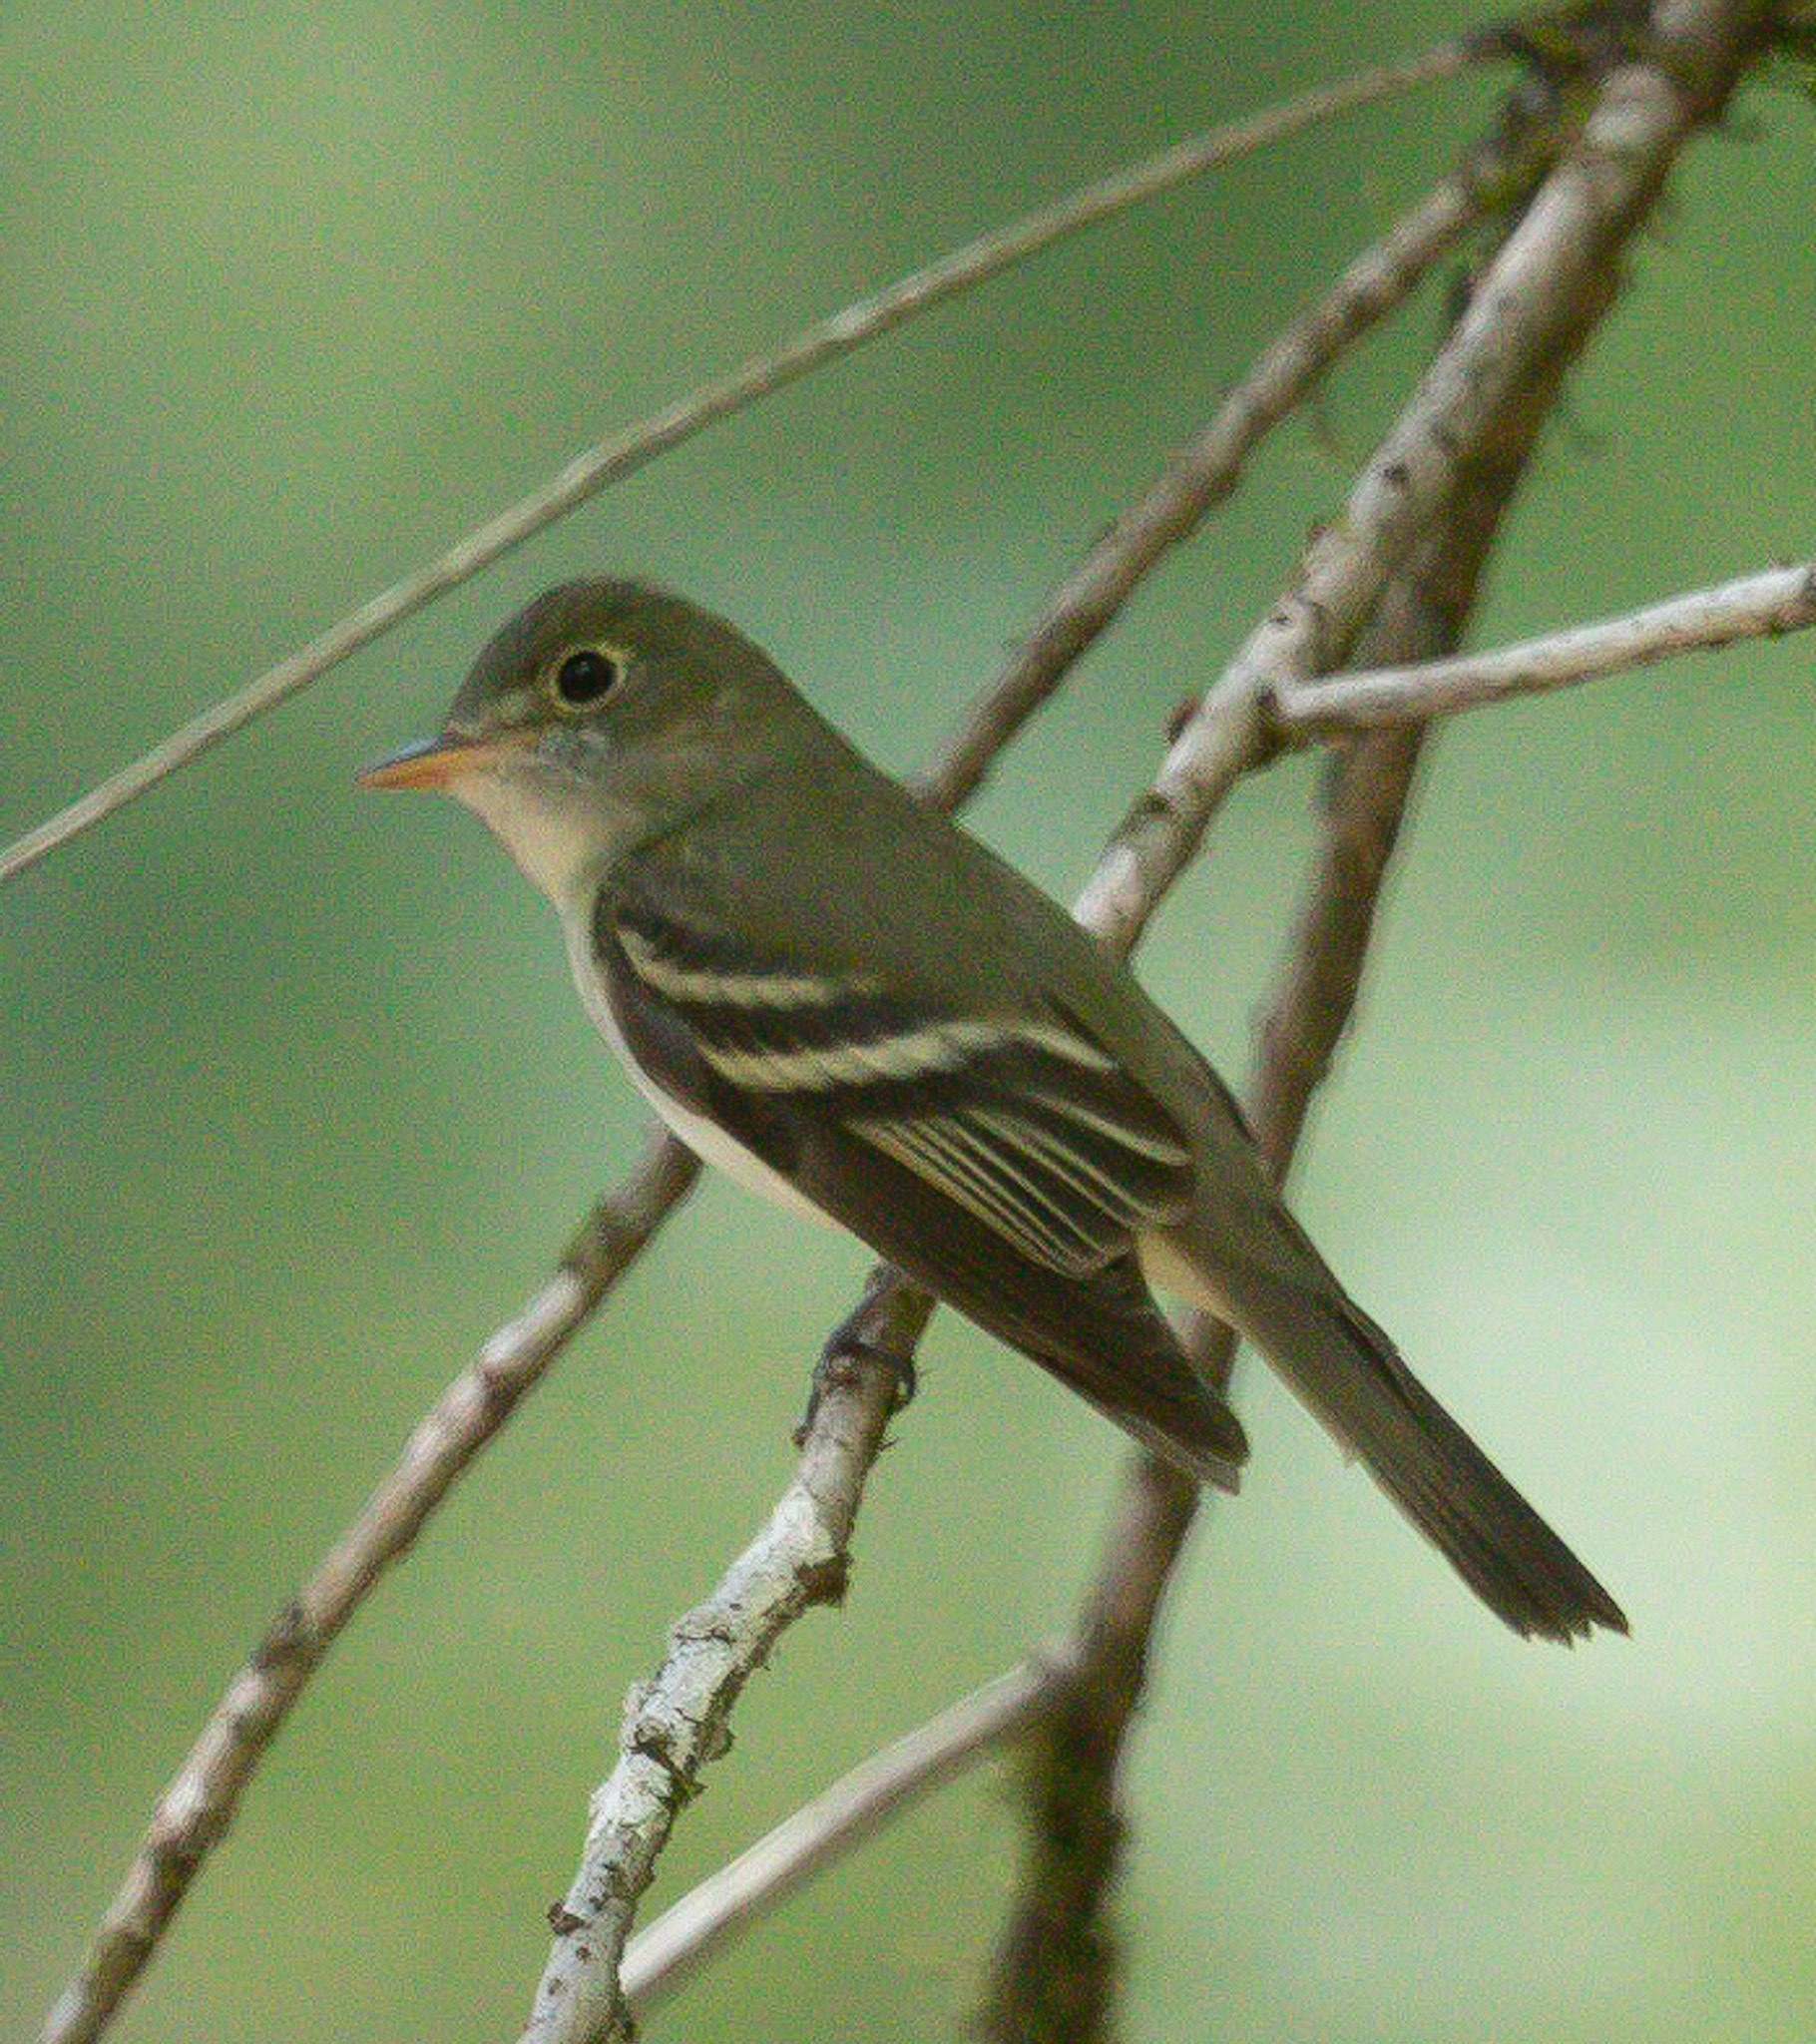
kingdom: Animalia
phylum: Chordata
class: Aves
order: Passeriformes
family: Tyrannidae
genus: Empidonax
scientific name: Empidonax virescens
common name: Acadian flycatcher
